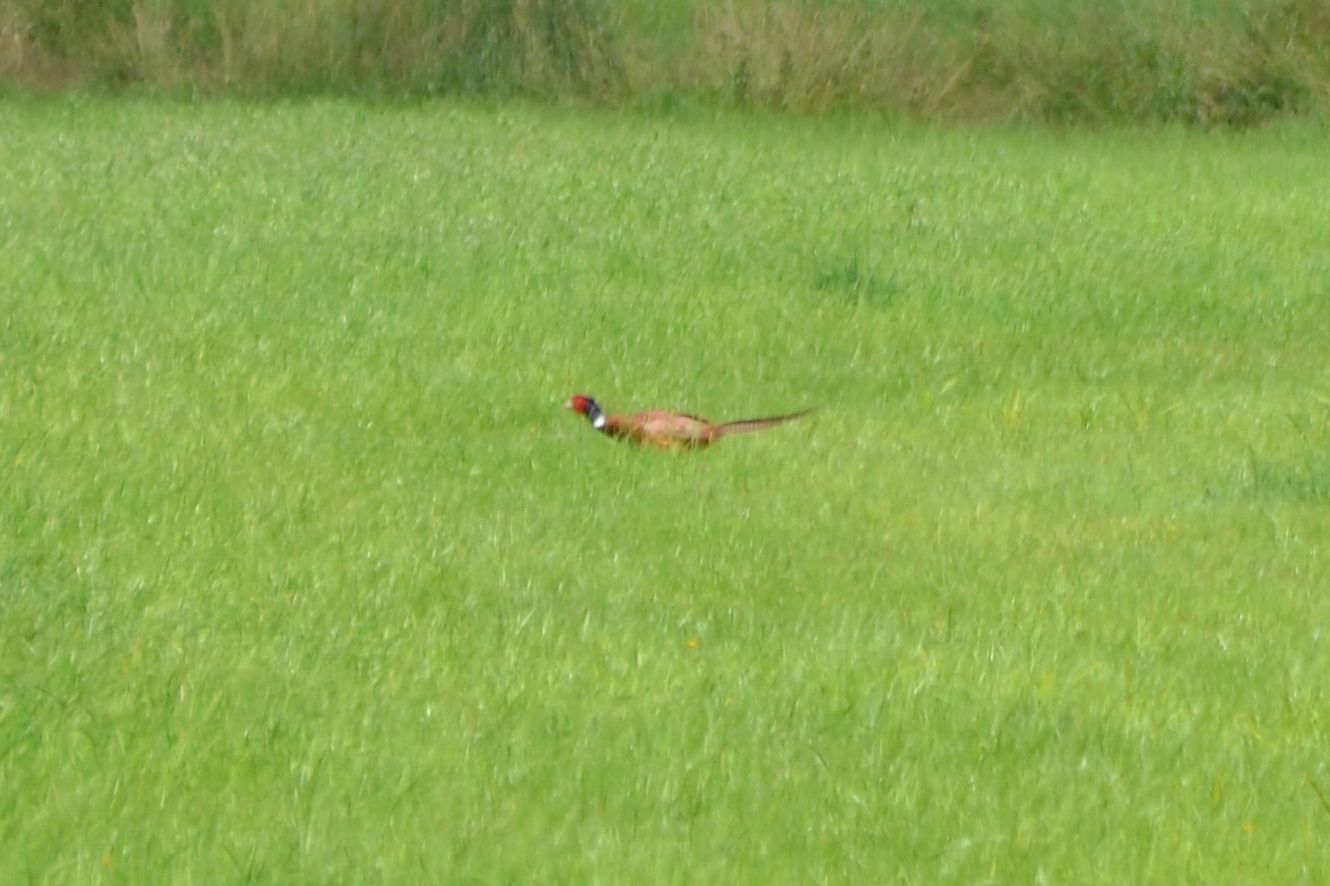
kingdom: Animalia
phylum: Chordata
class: Aves
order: Galliformes
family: Phasianidae
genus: Phasianus
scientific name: Phasianus colchicus
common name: Common pheasant
